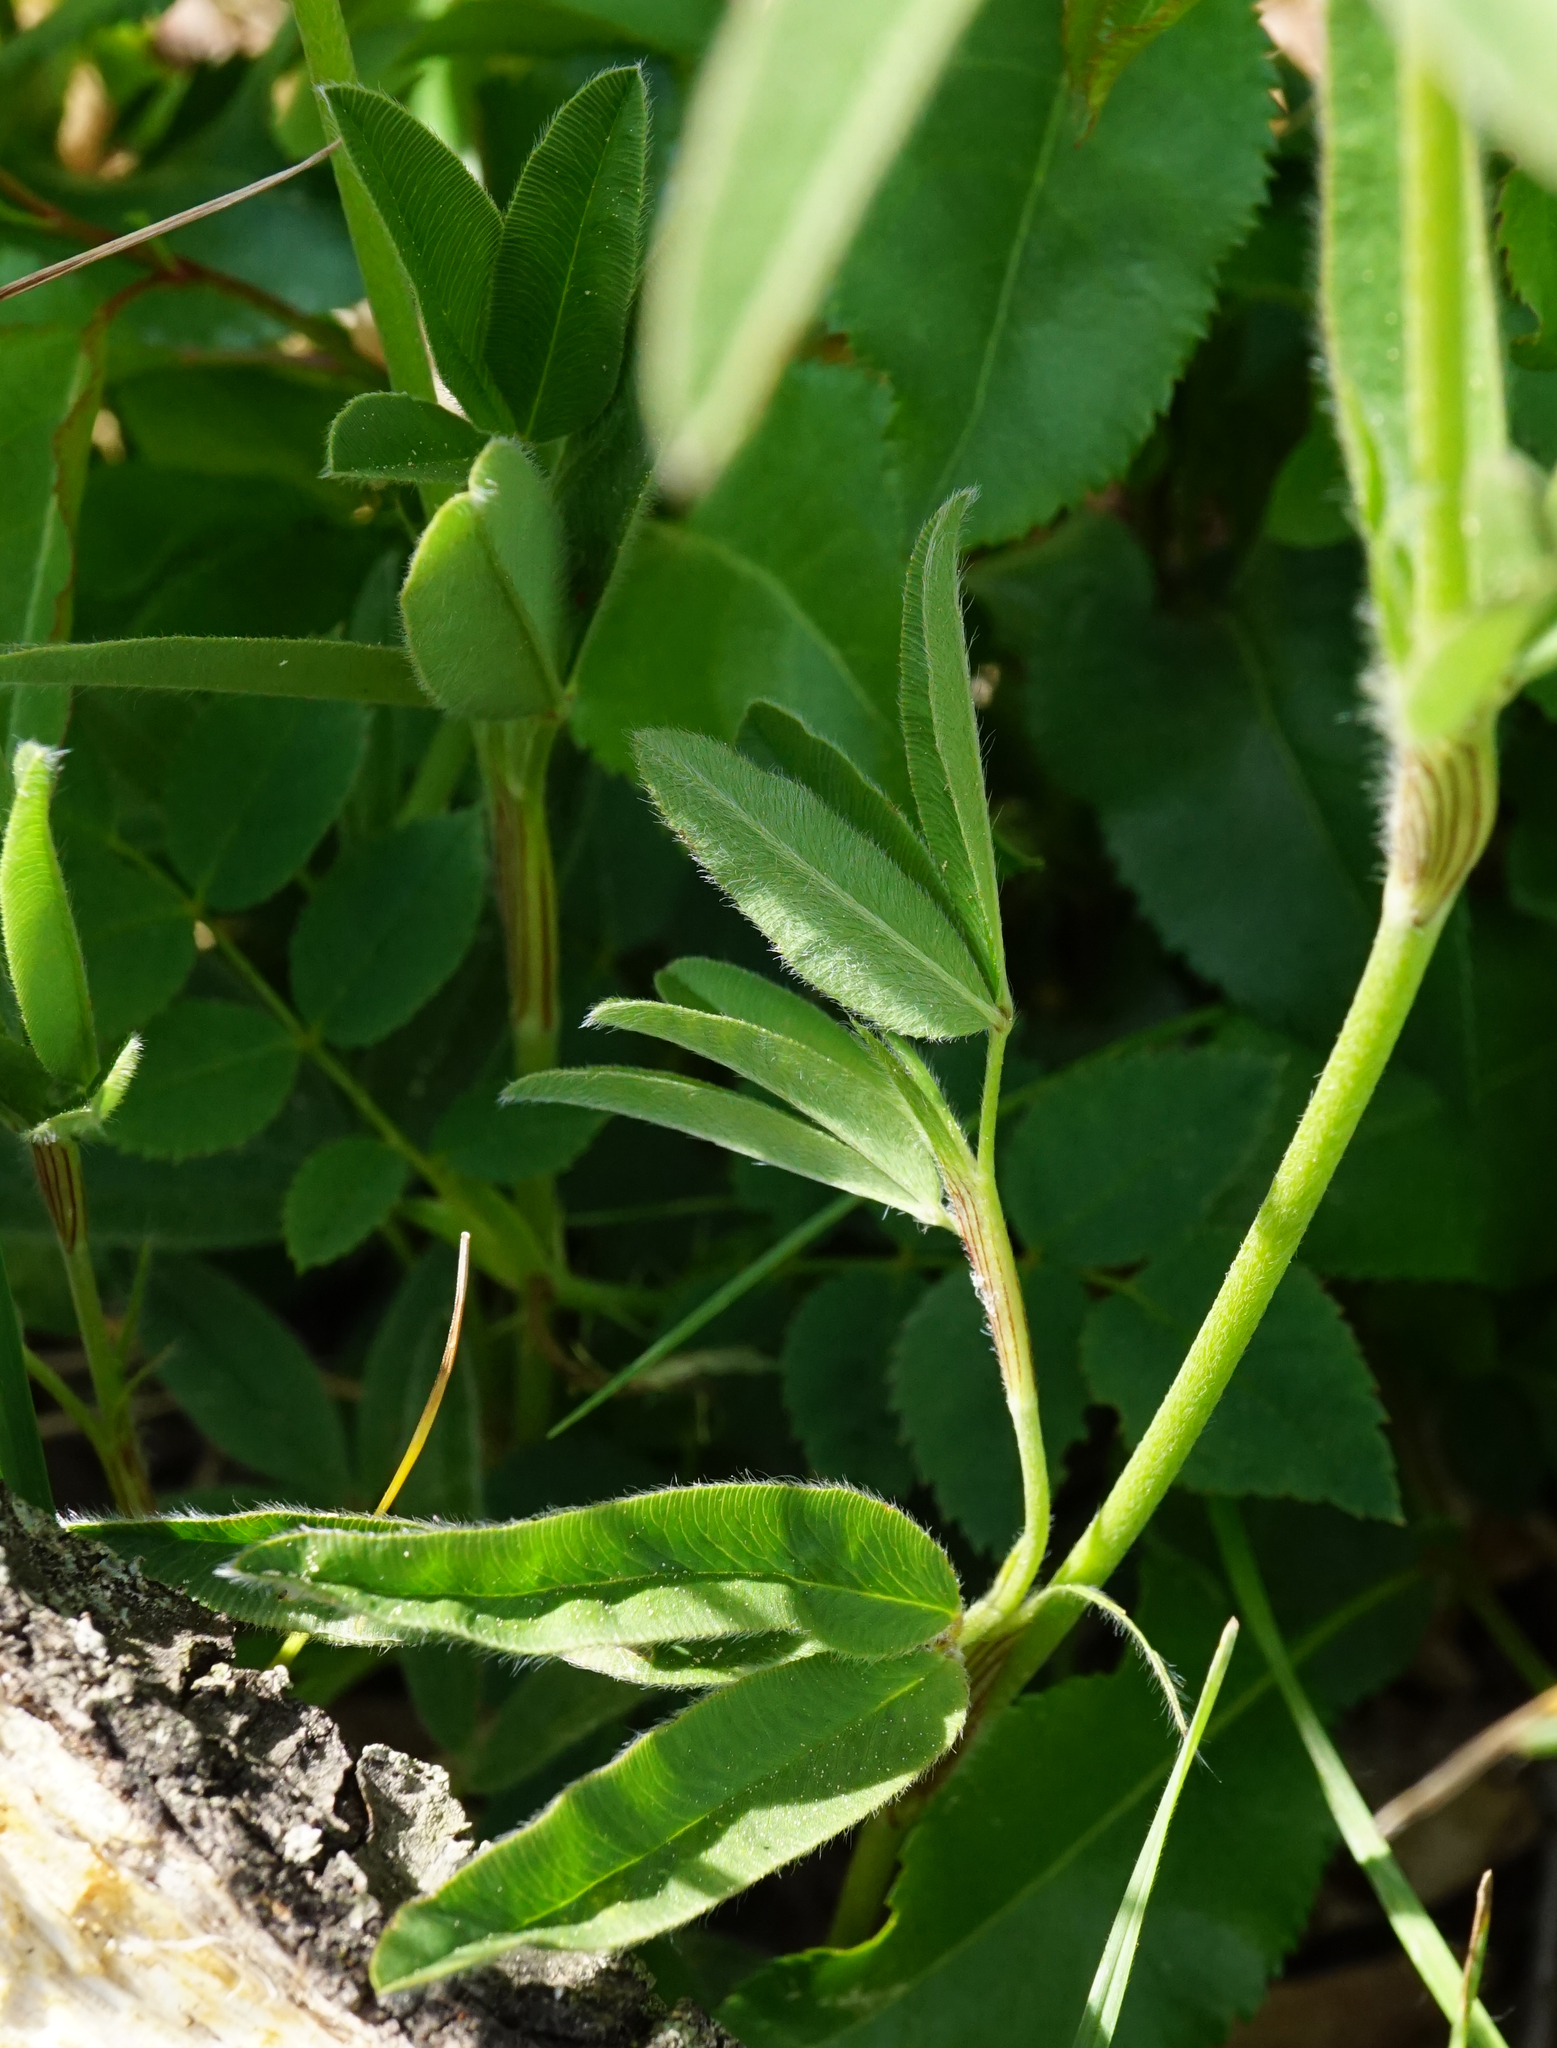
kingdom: Plantae
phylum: Tracheophyta
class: Magnoliopsida
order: Fabales
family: Fabaceae
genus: Trifolium
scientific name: Trifolium alpestre
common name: Owl-head clover
